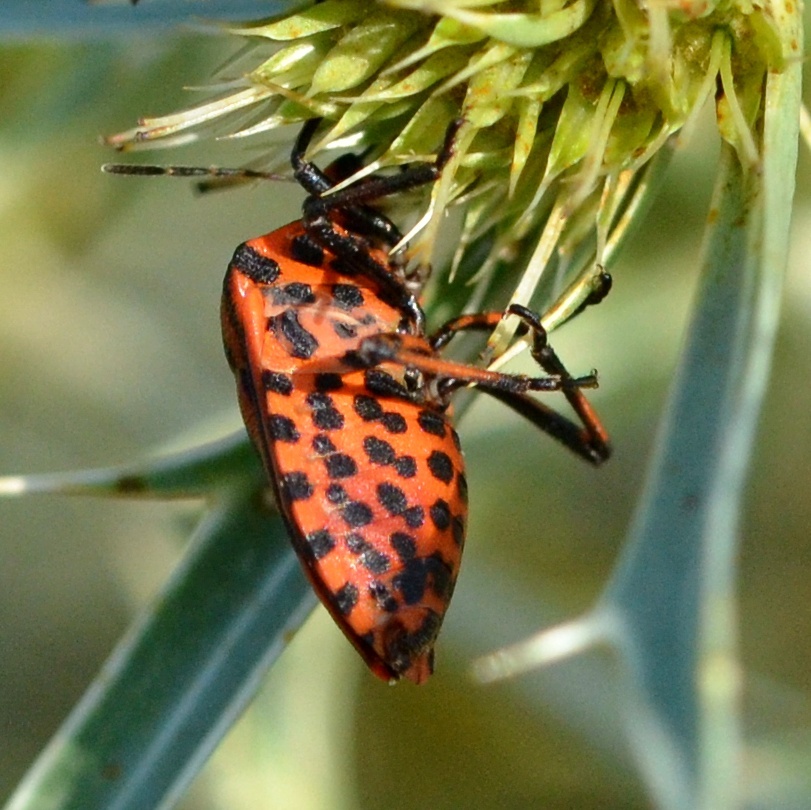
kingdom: Animalia
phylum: Arthropoda
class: Insecta
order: Hemiptera
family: Pentatomidae
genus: Graphosoma
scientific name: Graphosoma italicum
